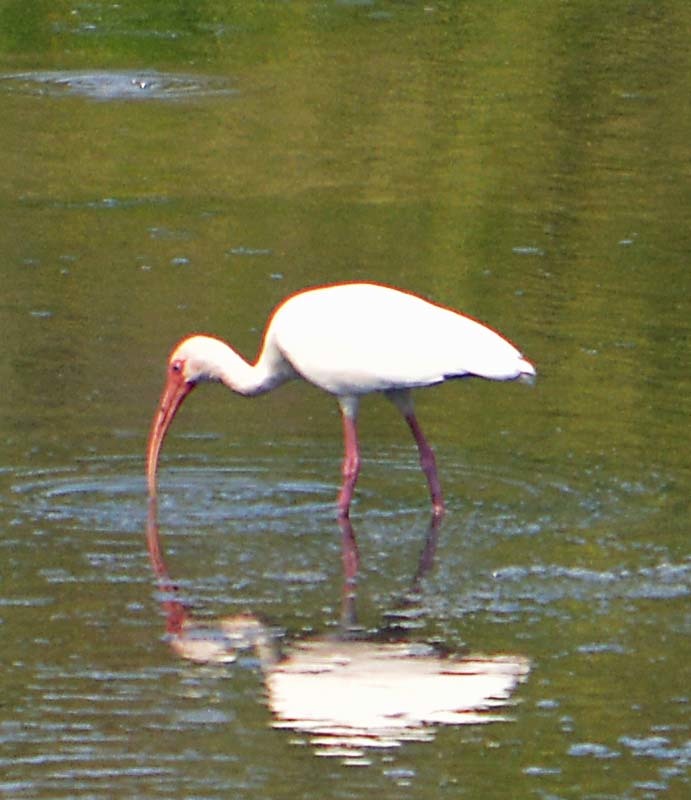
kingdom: Animalia
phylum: Chordata
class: Aves
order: Pelecaniformes
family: Threskiornithidae
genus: Eudocimus
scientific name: Eudocimus albus
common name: White ibis
